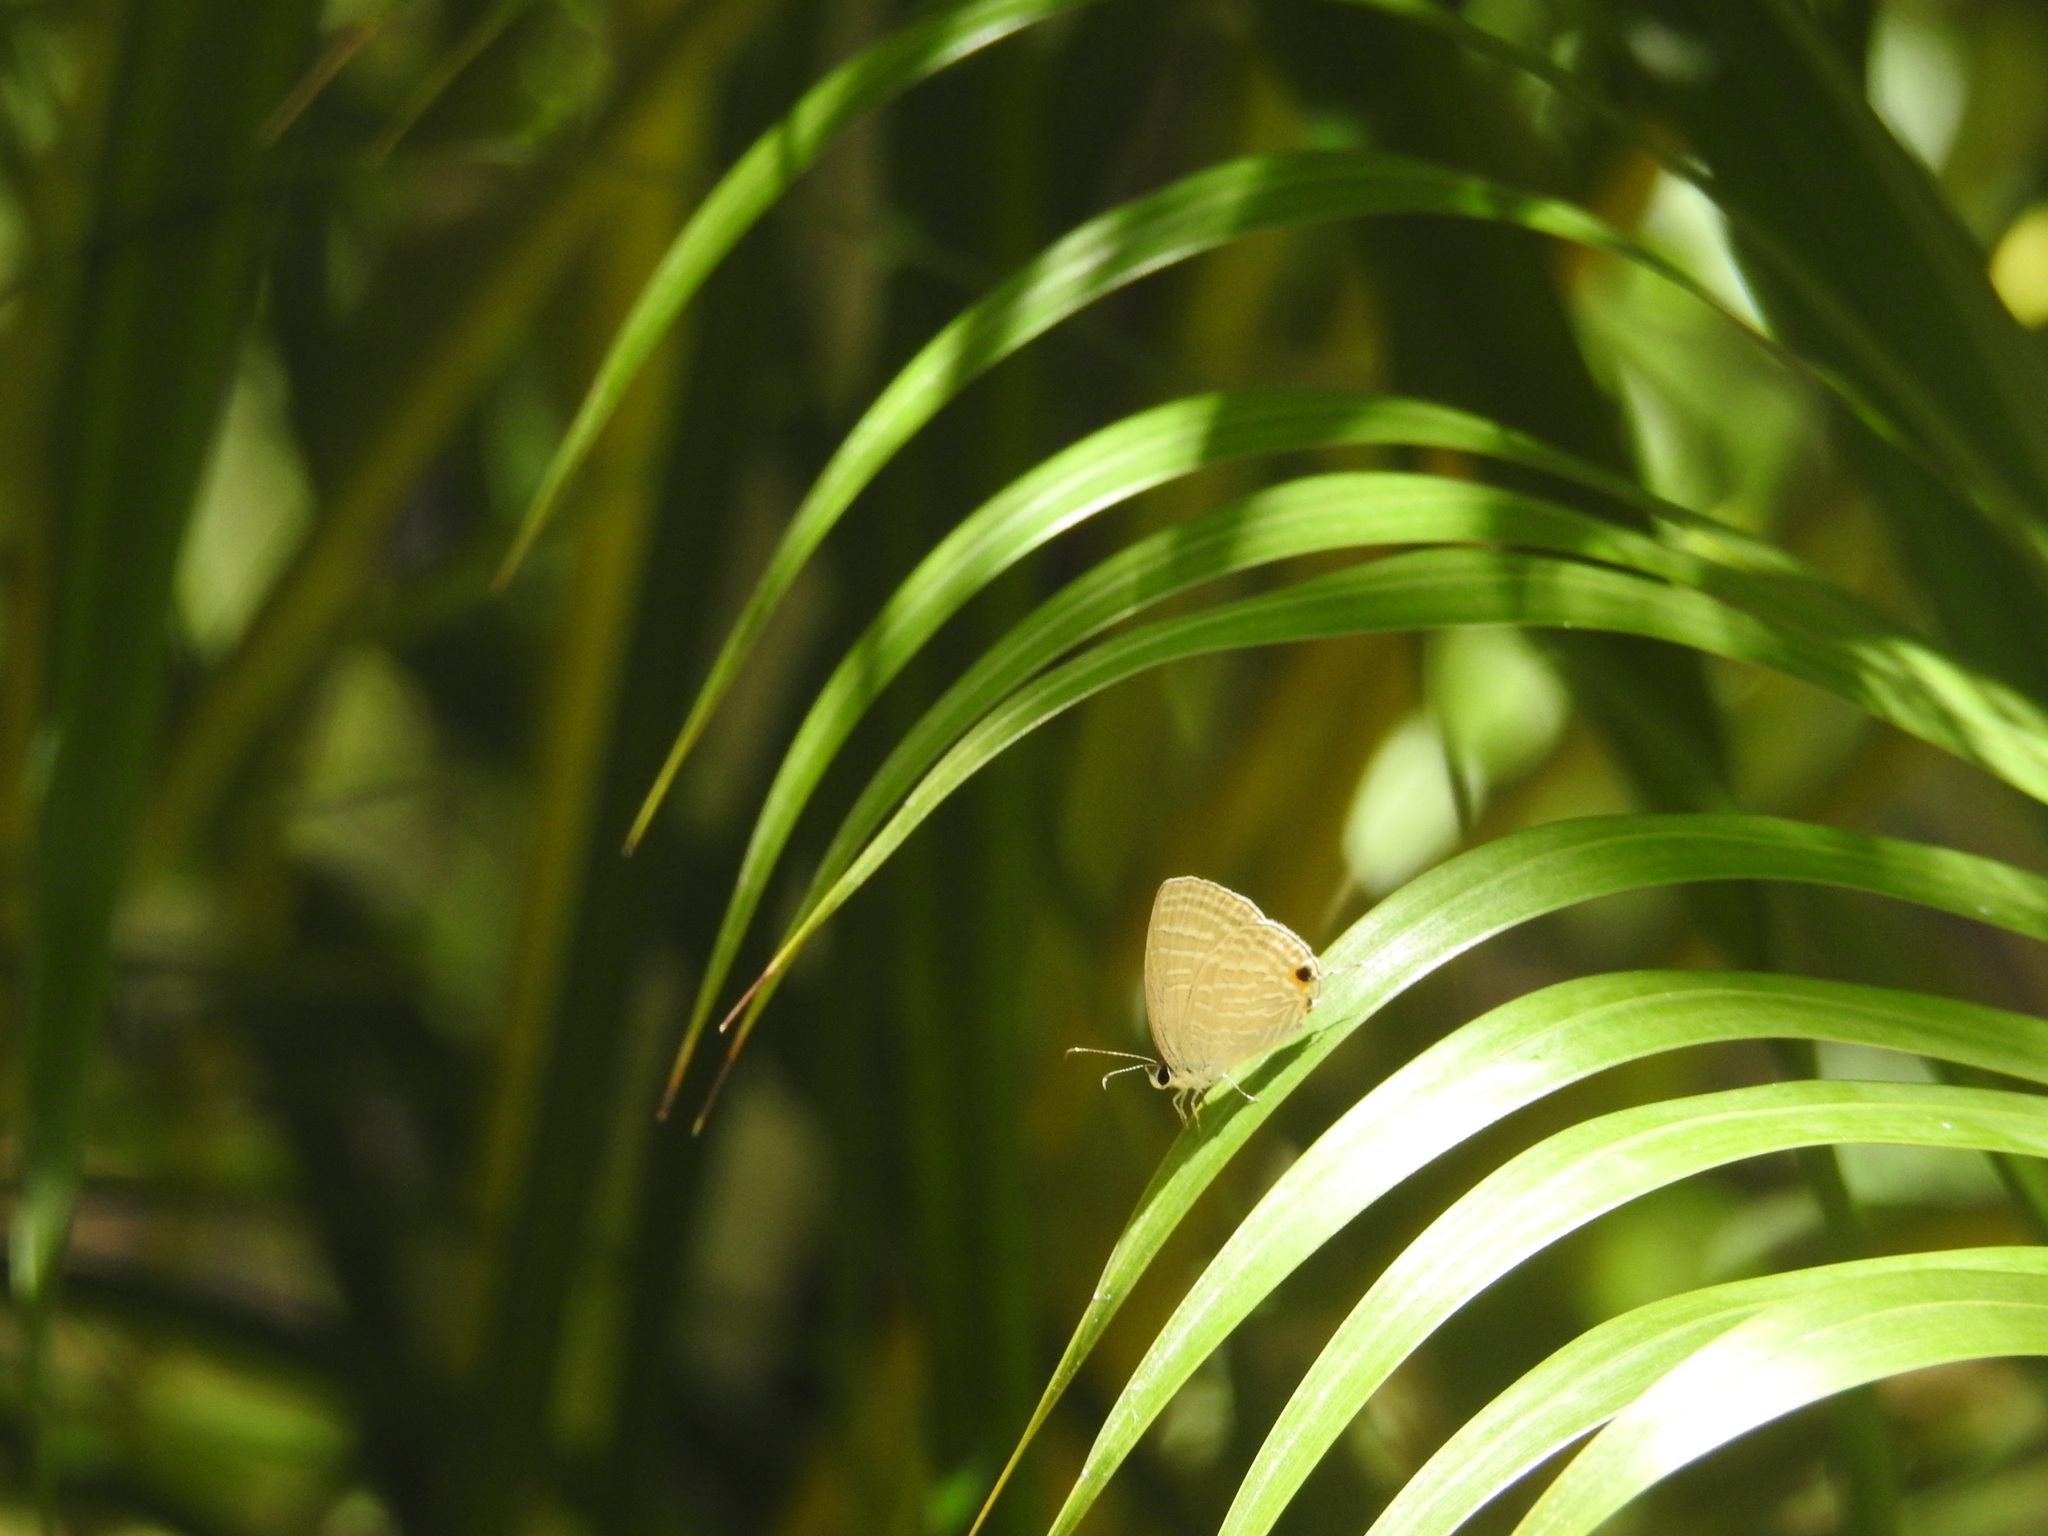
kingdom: Animalia
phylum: Arthropoda
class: Insecta
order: Lepidoptera
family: Lycaenidae
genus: Jamides
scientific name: Jamides celeno
